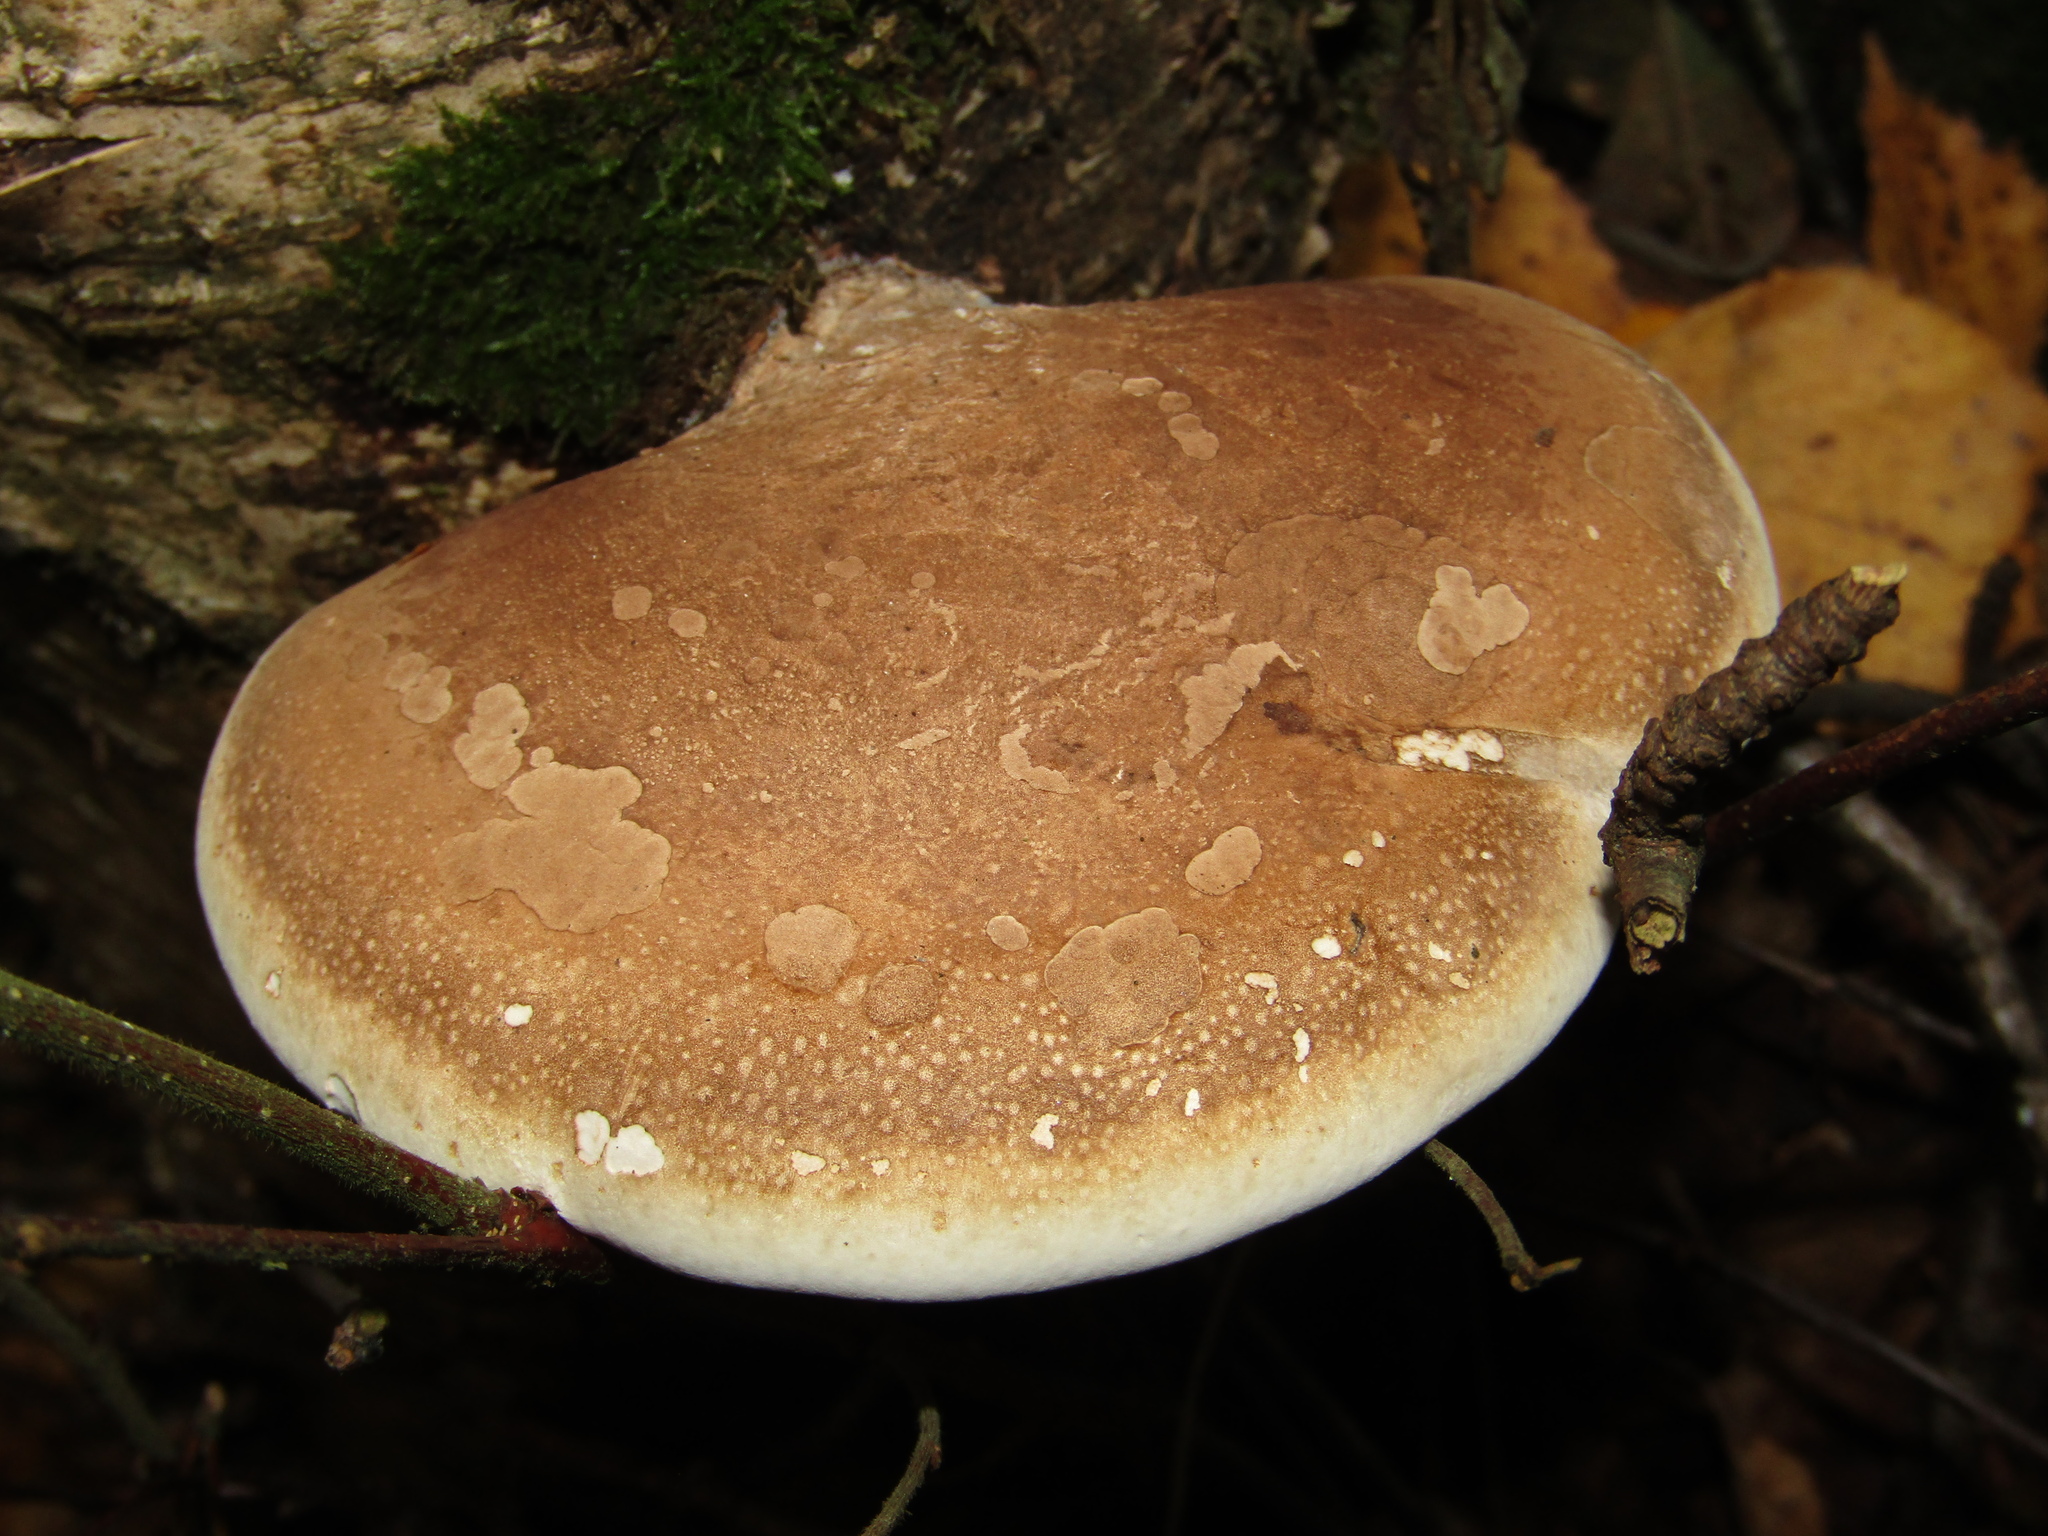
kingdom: Fungi
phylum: Basidiomycota
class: Agaricomycetes
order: Polyporales
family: Fomitopsidaceae
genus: Fomitopsis
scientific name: Fomitopsis betulina
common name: Birch polypore
